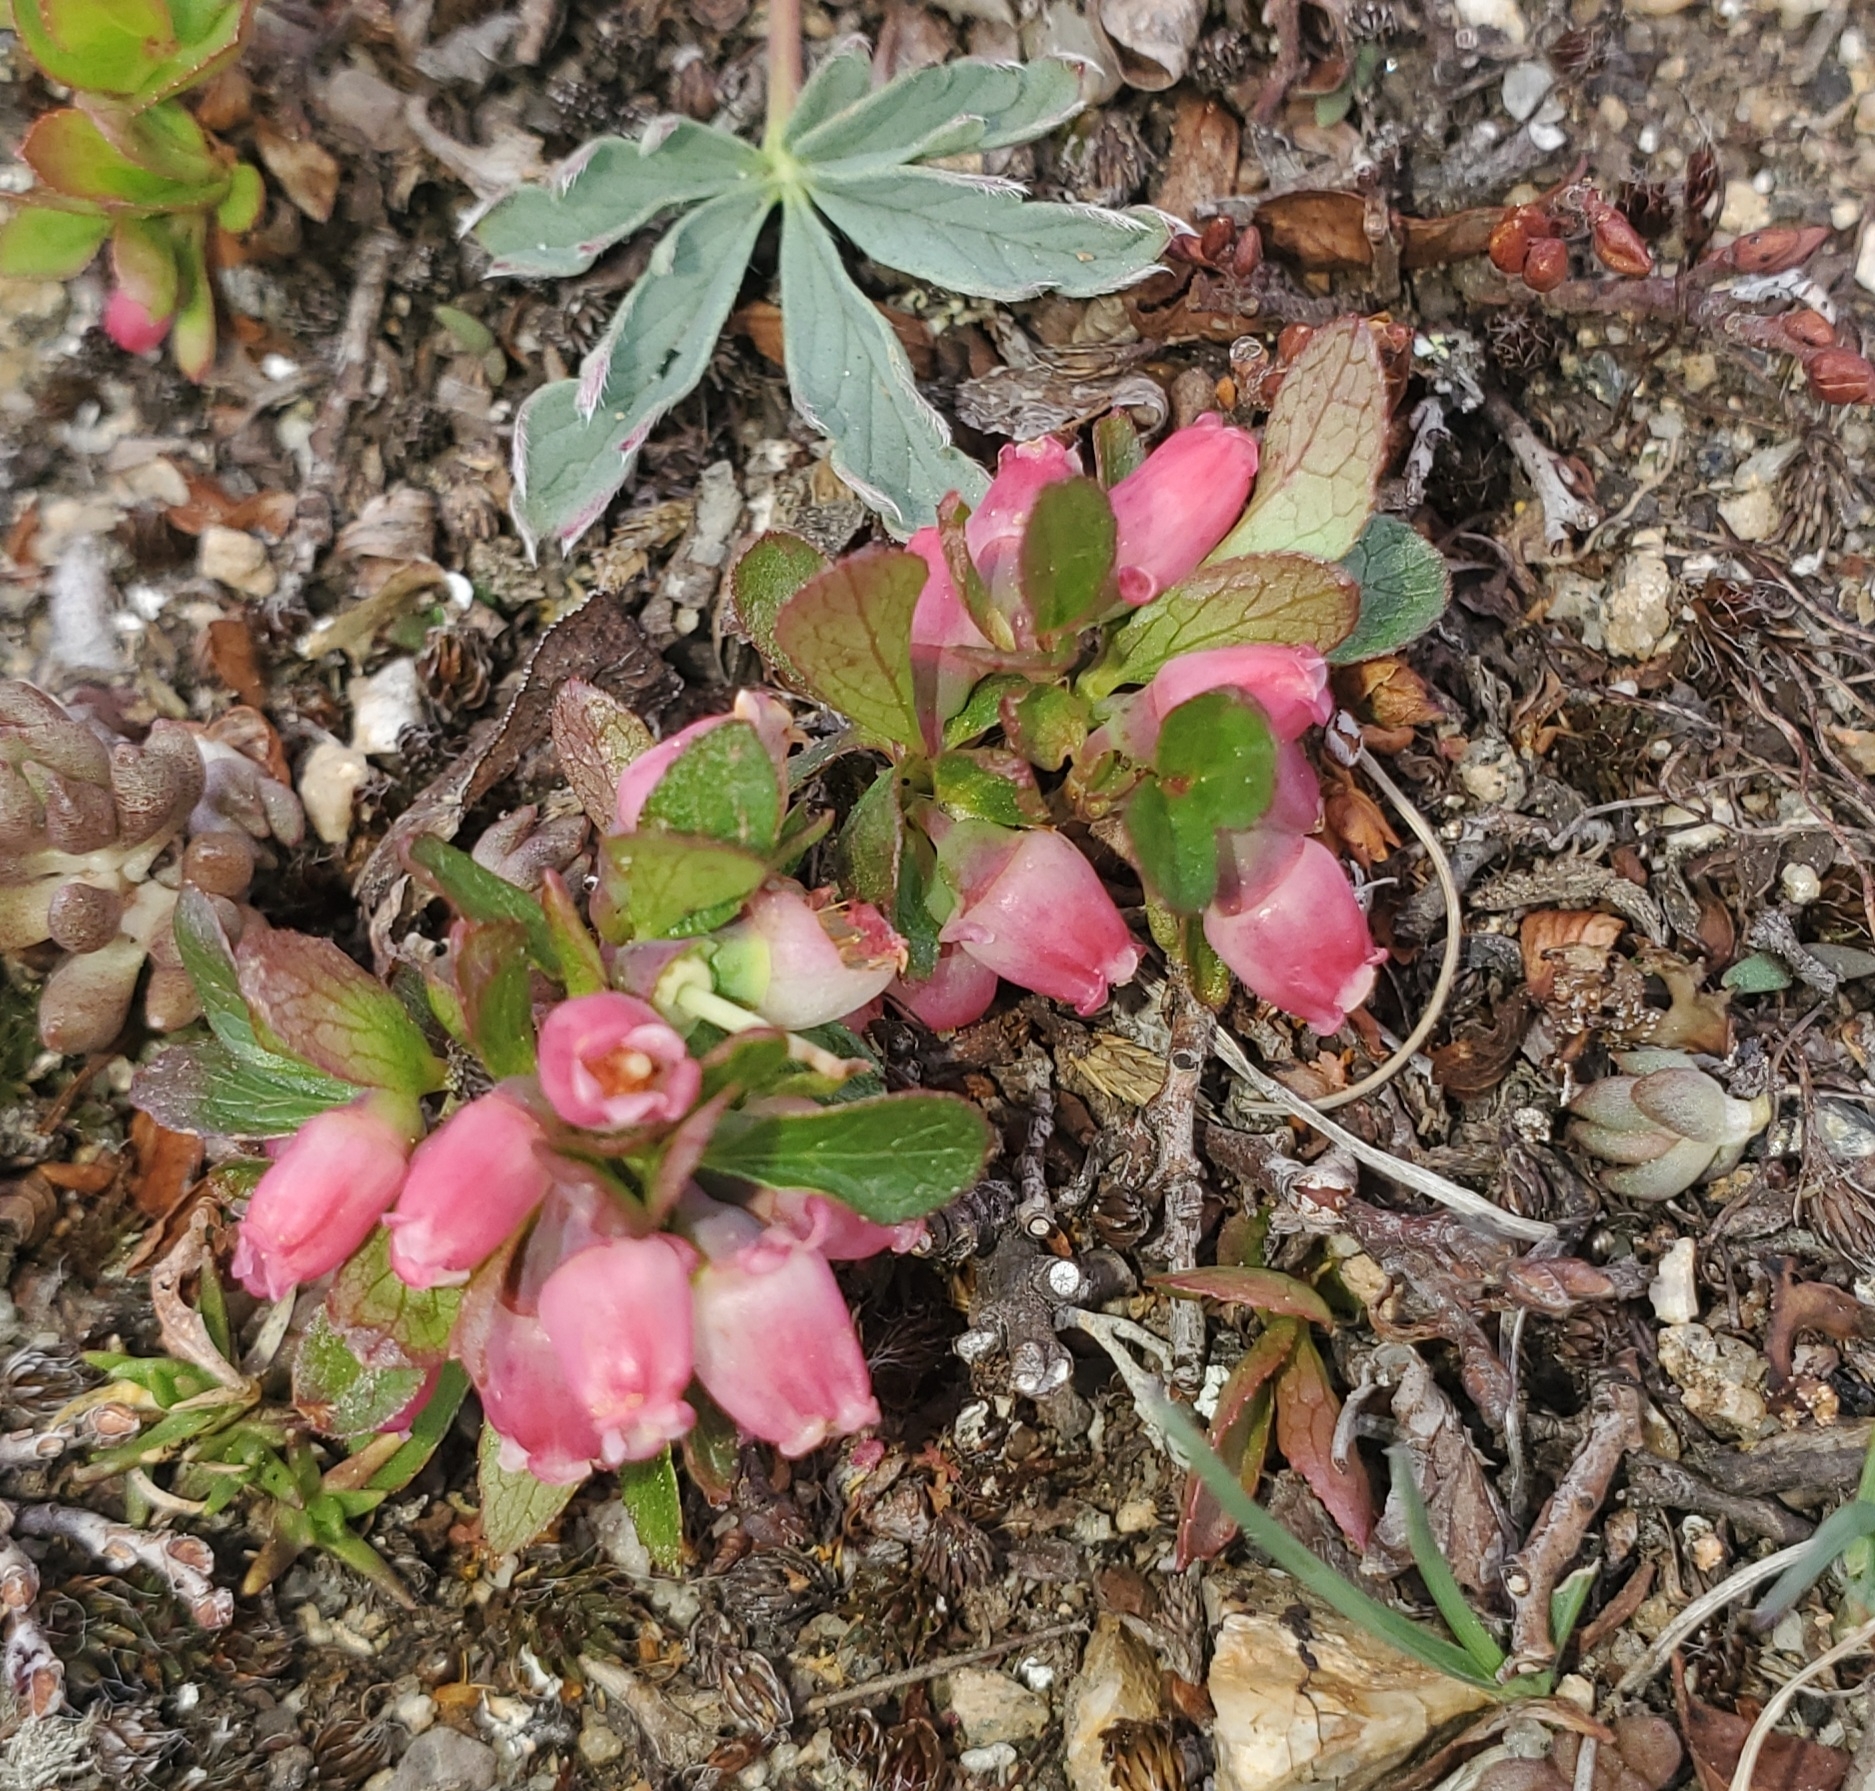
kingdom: Plantae
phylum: Tracheophyta
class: Magnoliopsida
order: Ericales
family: Ericaceae
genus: Vaccinium
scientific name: Vaccinium cespitosum
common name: Dwarf bilberry
